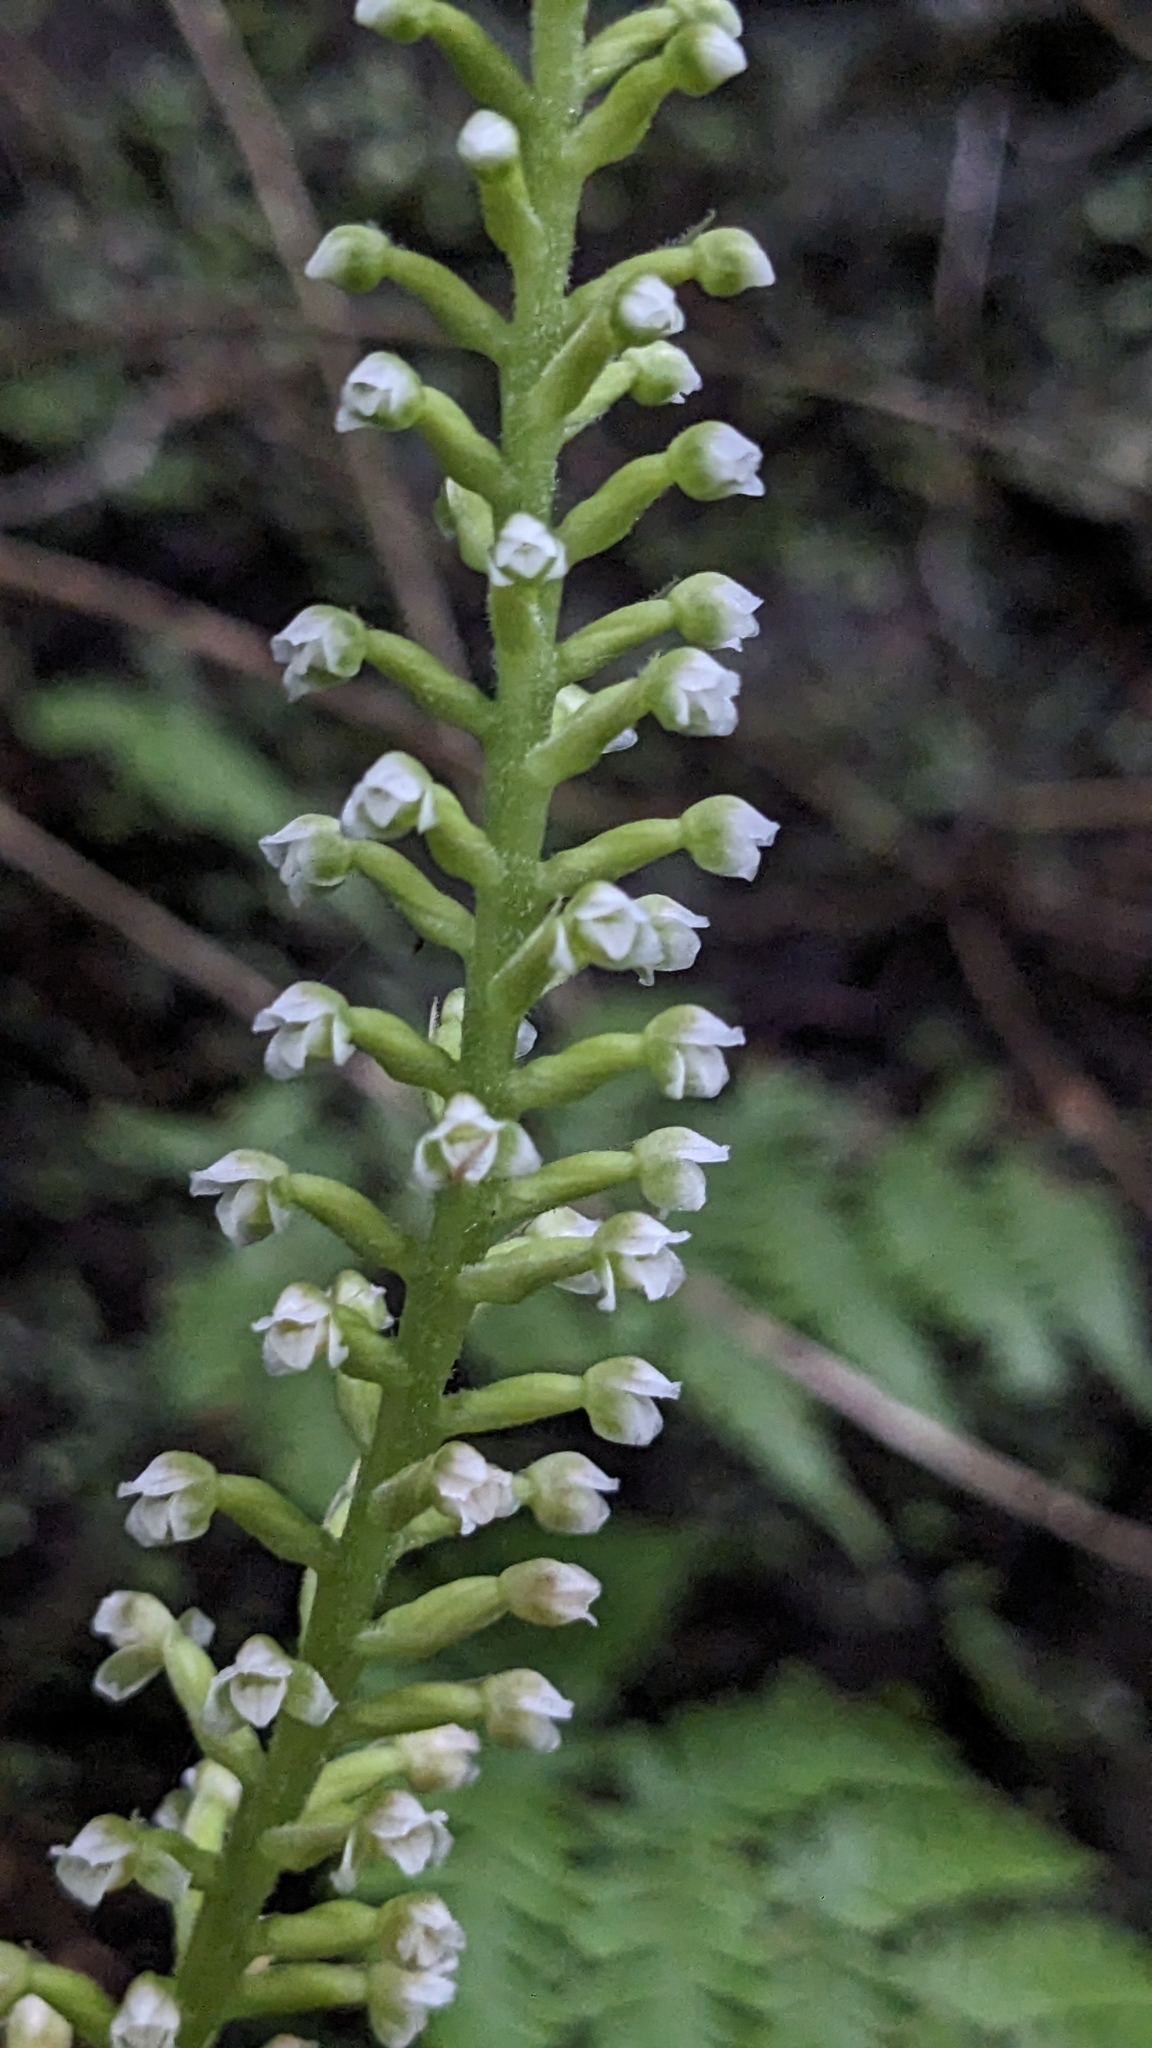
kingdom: Plantae
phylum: Tracheophyta
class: Liliopsida
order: Asparagales
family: Orchidaceae
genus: Goodyera
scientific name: Goodyera procera
